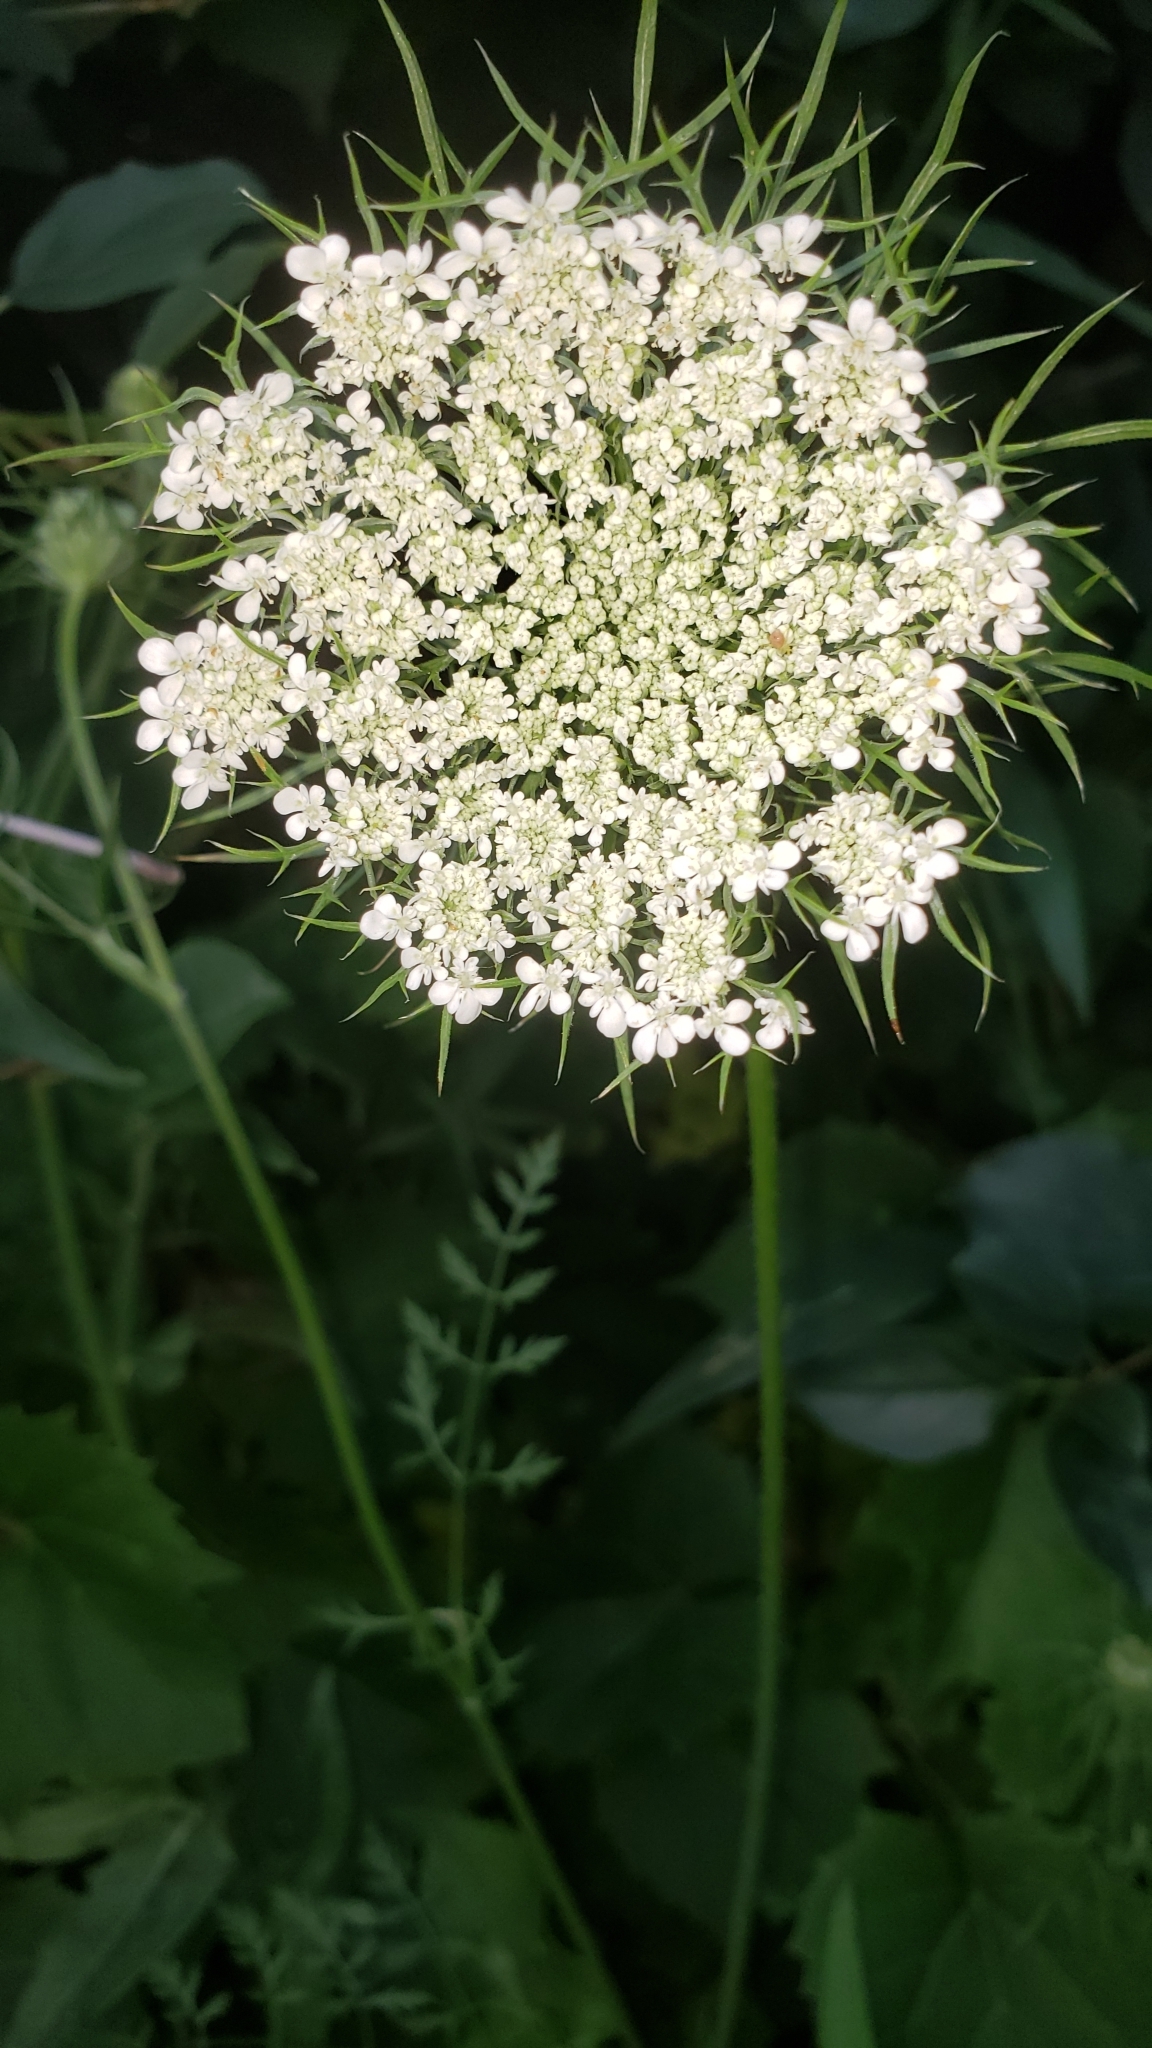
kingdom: Plantae
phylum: Tracheophyta
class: Magnoliopsida
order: Apiales
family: Apiaceae
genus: Daucus
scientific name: Daucus carota
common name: Wild carrot
